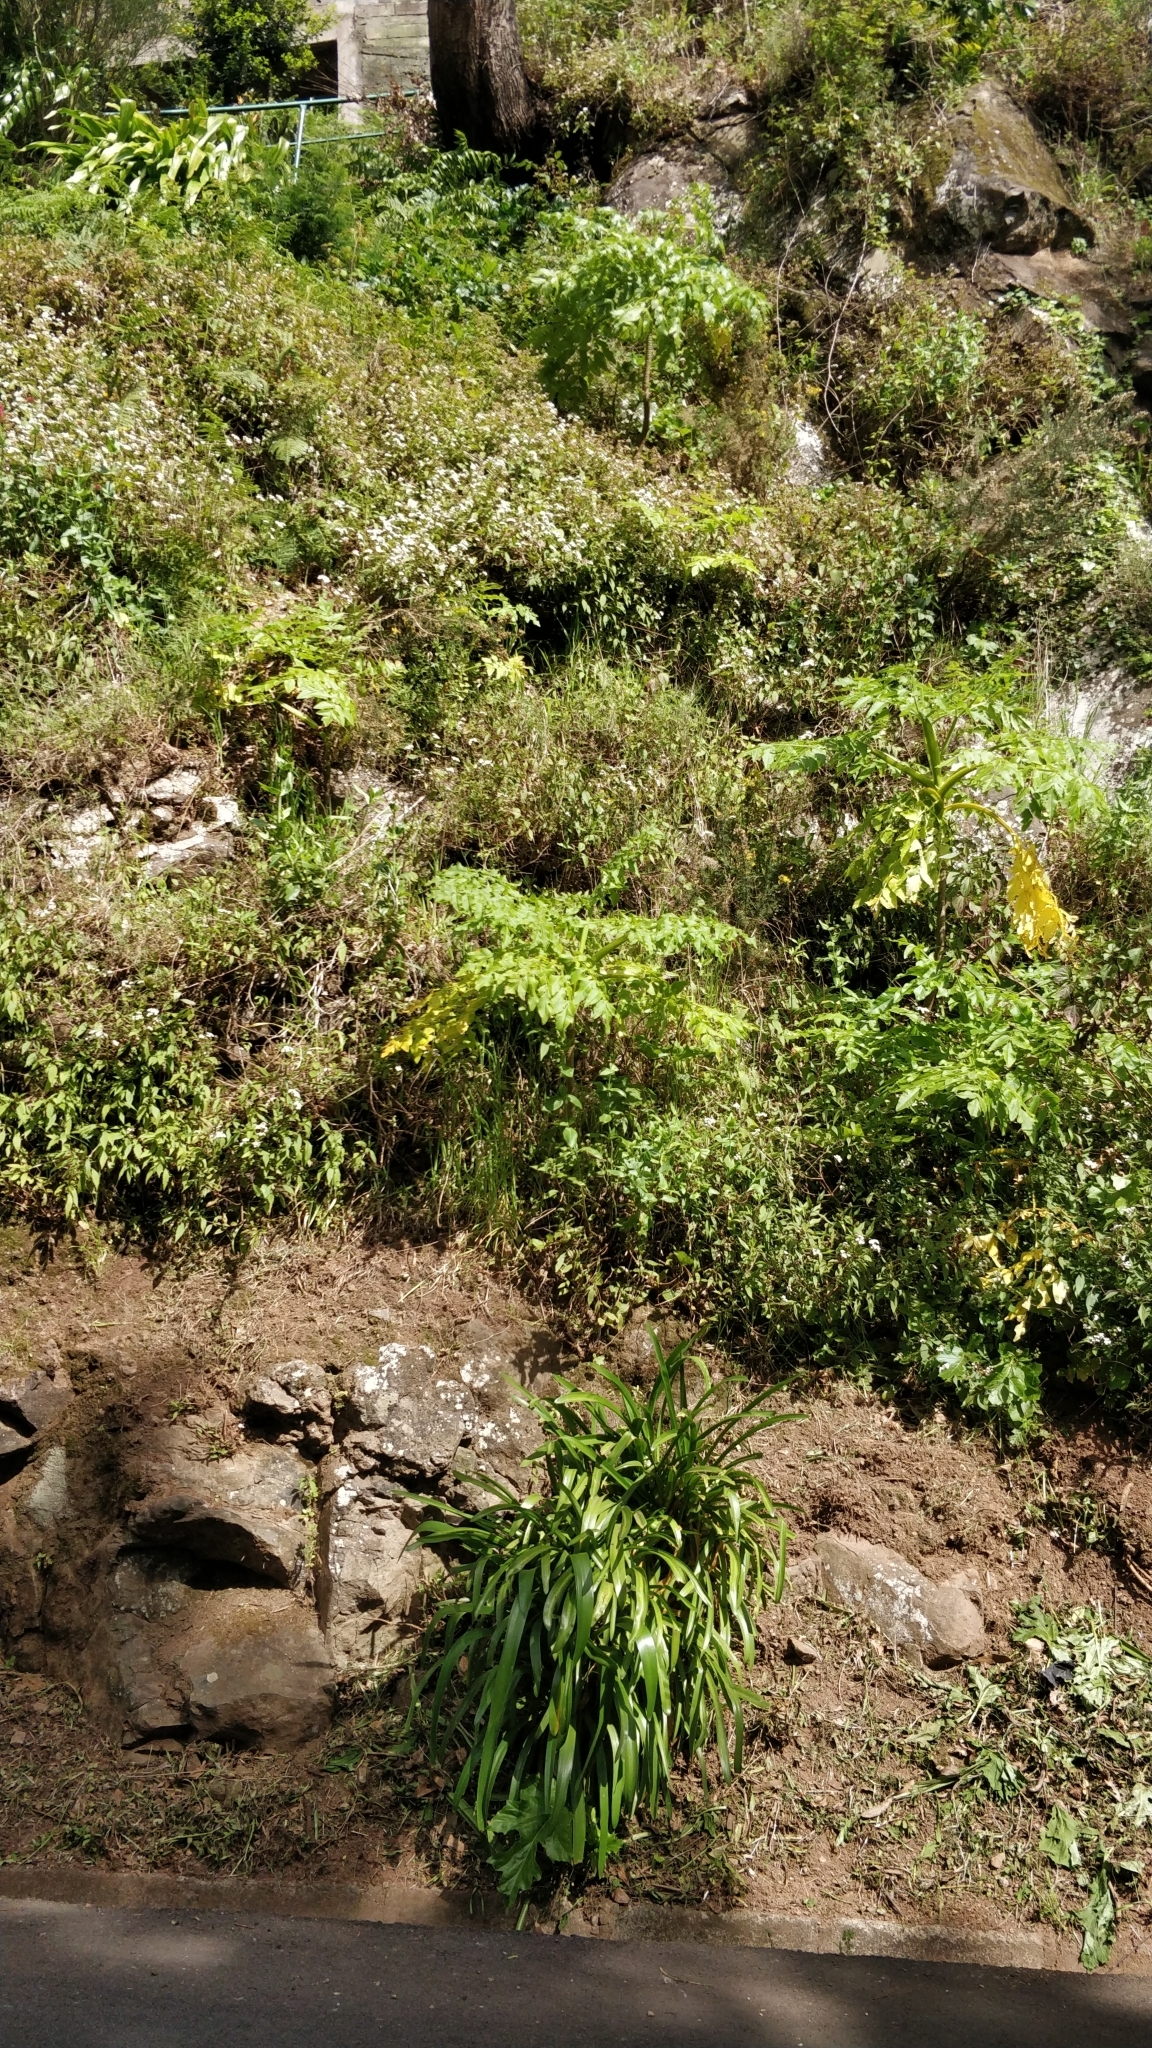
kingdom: Plantae
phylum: Tracheophyta
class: Magnoliopsida
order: Apiales
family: Apiaceae
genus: Daucus
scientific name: Daucus decipiens
